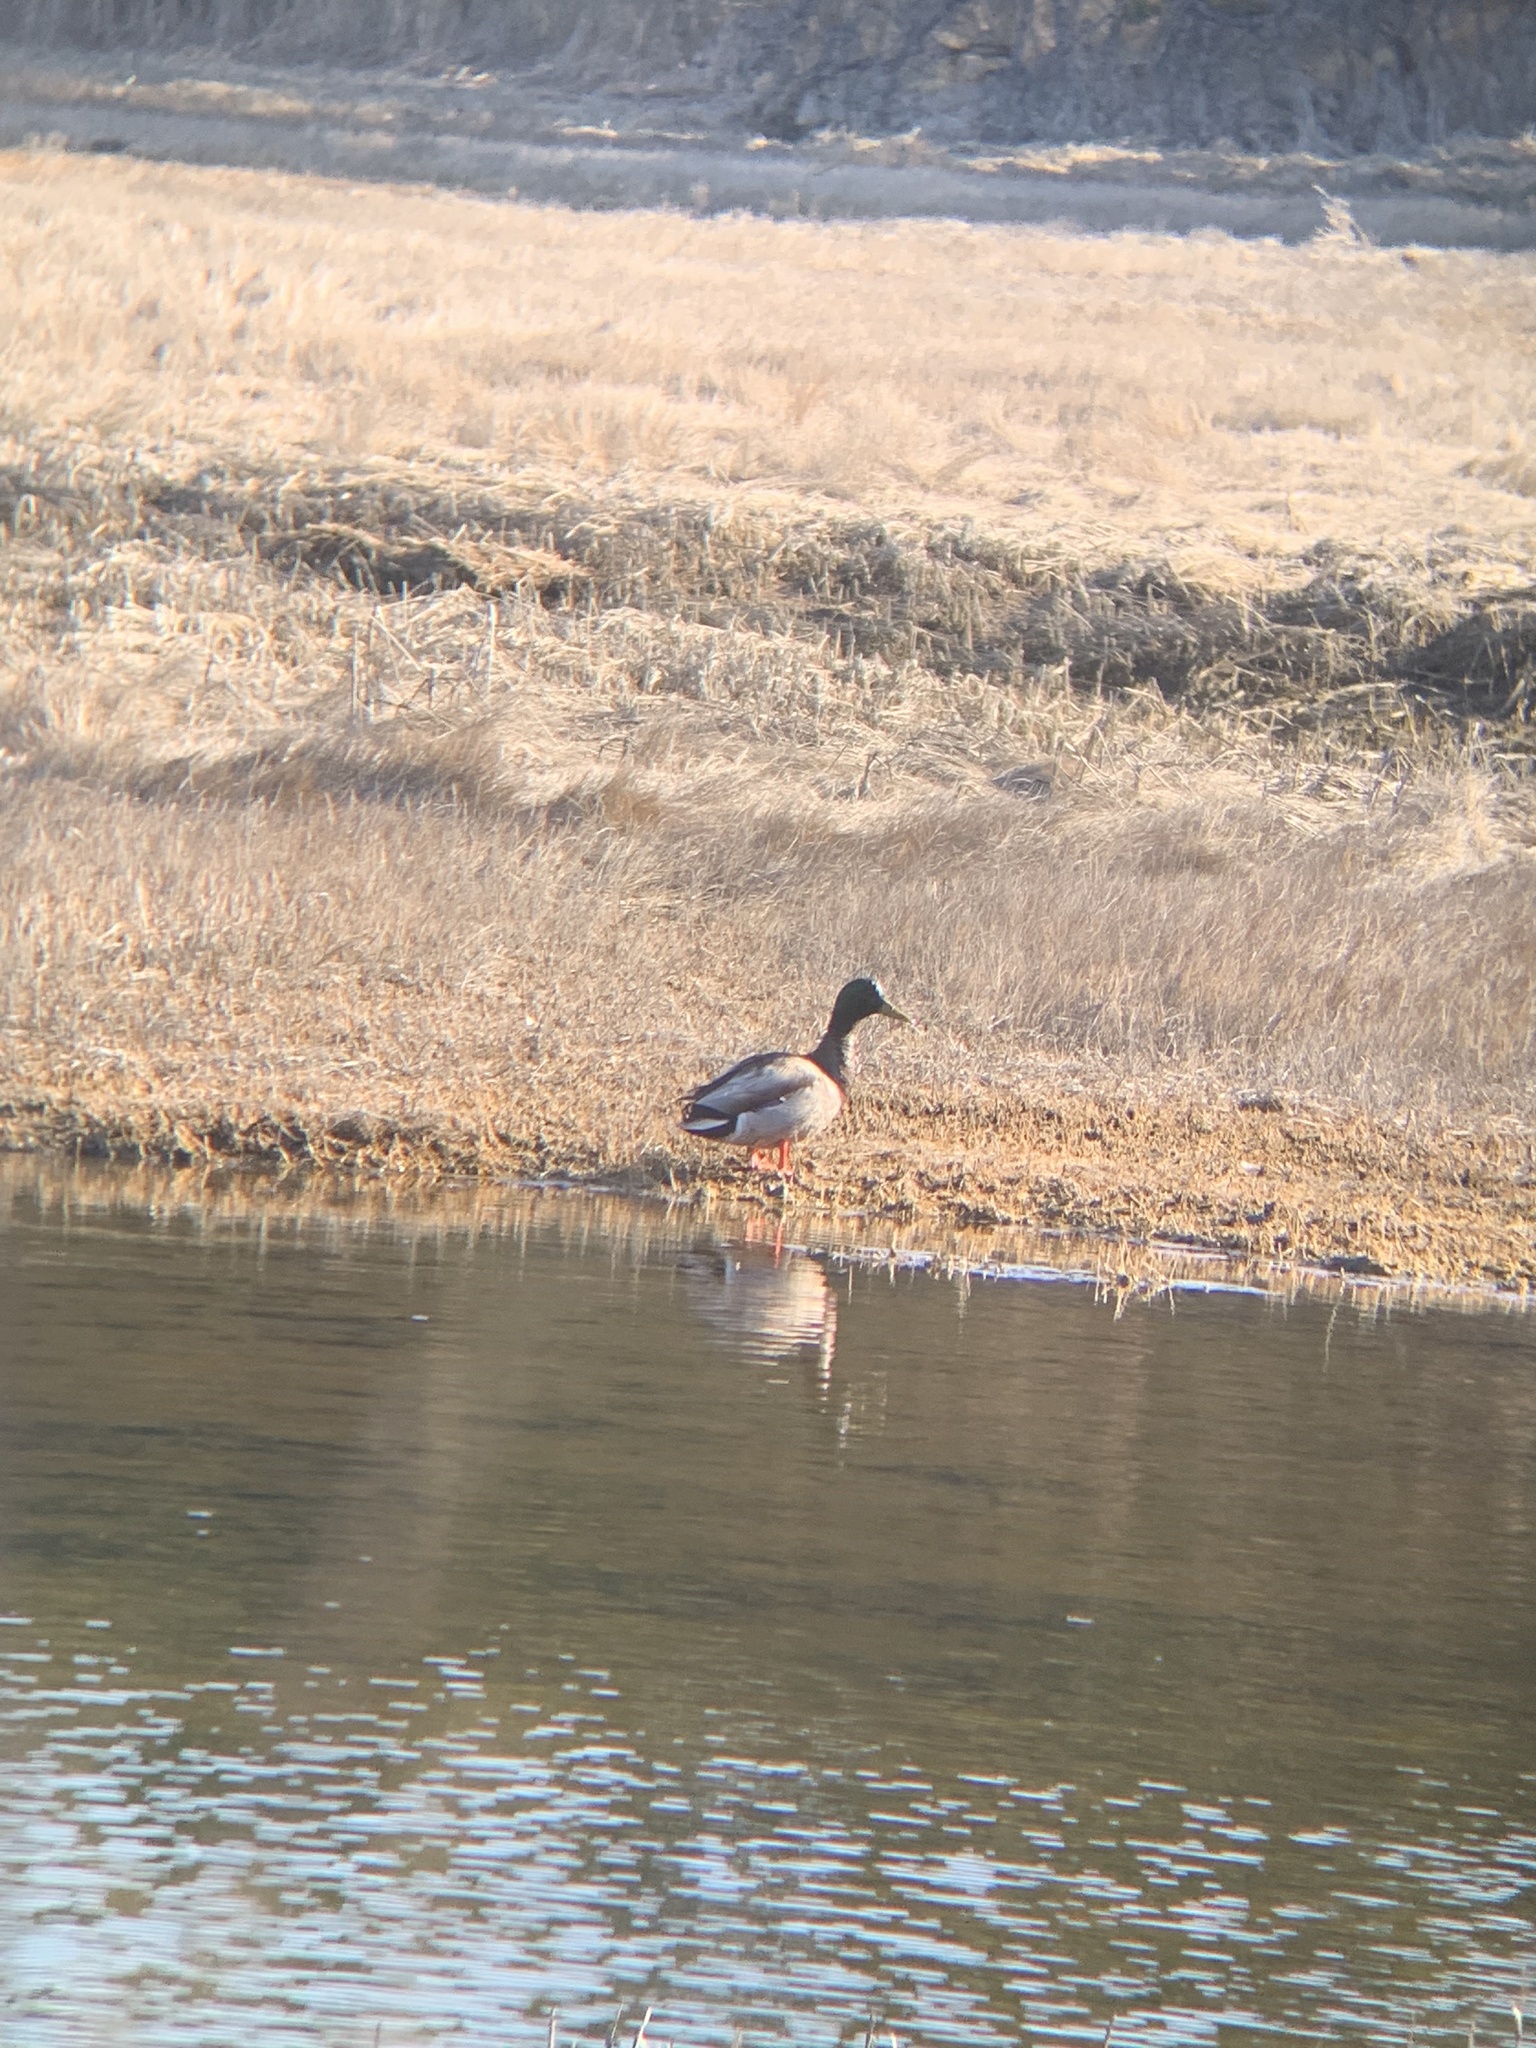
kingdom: Animalia
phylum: Chordata
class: Aves
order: Anseriformes
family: Anatidae
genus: Anas
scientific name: Anas platyrhynchos
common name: Mallard
